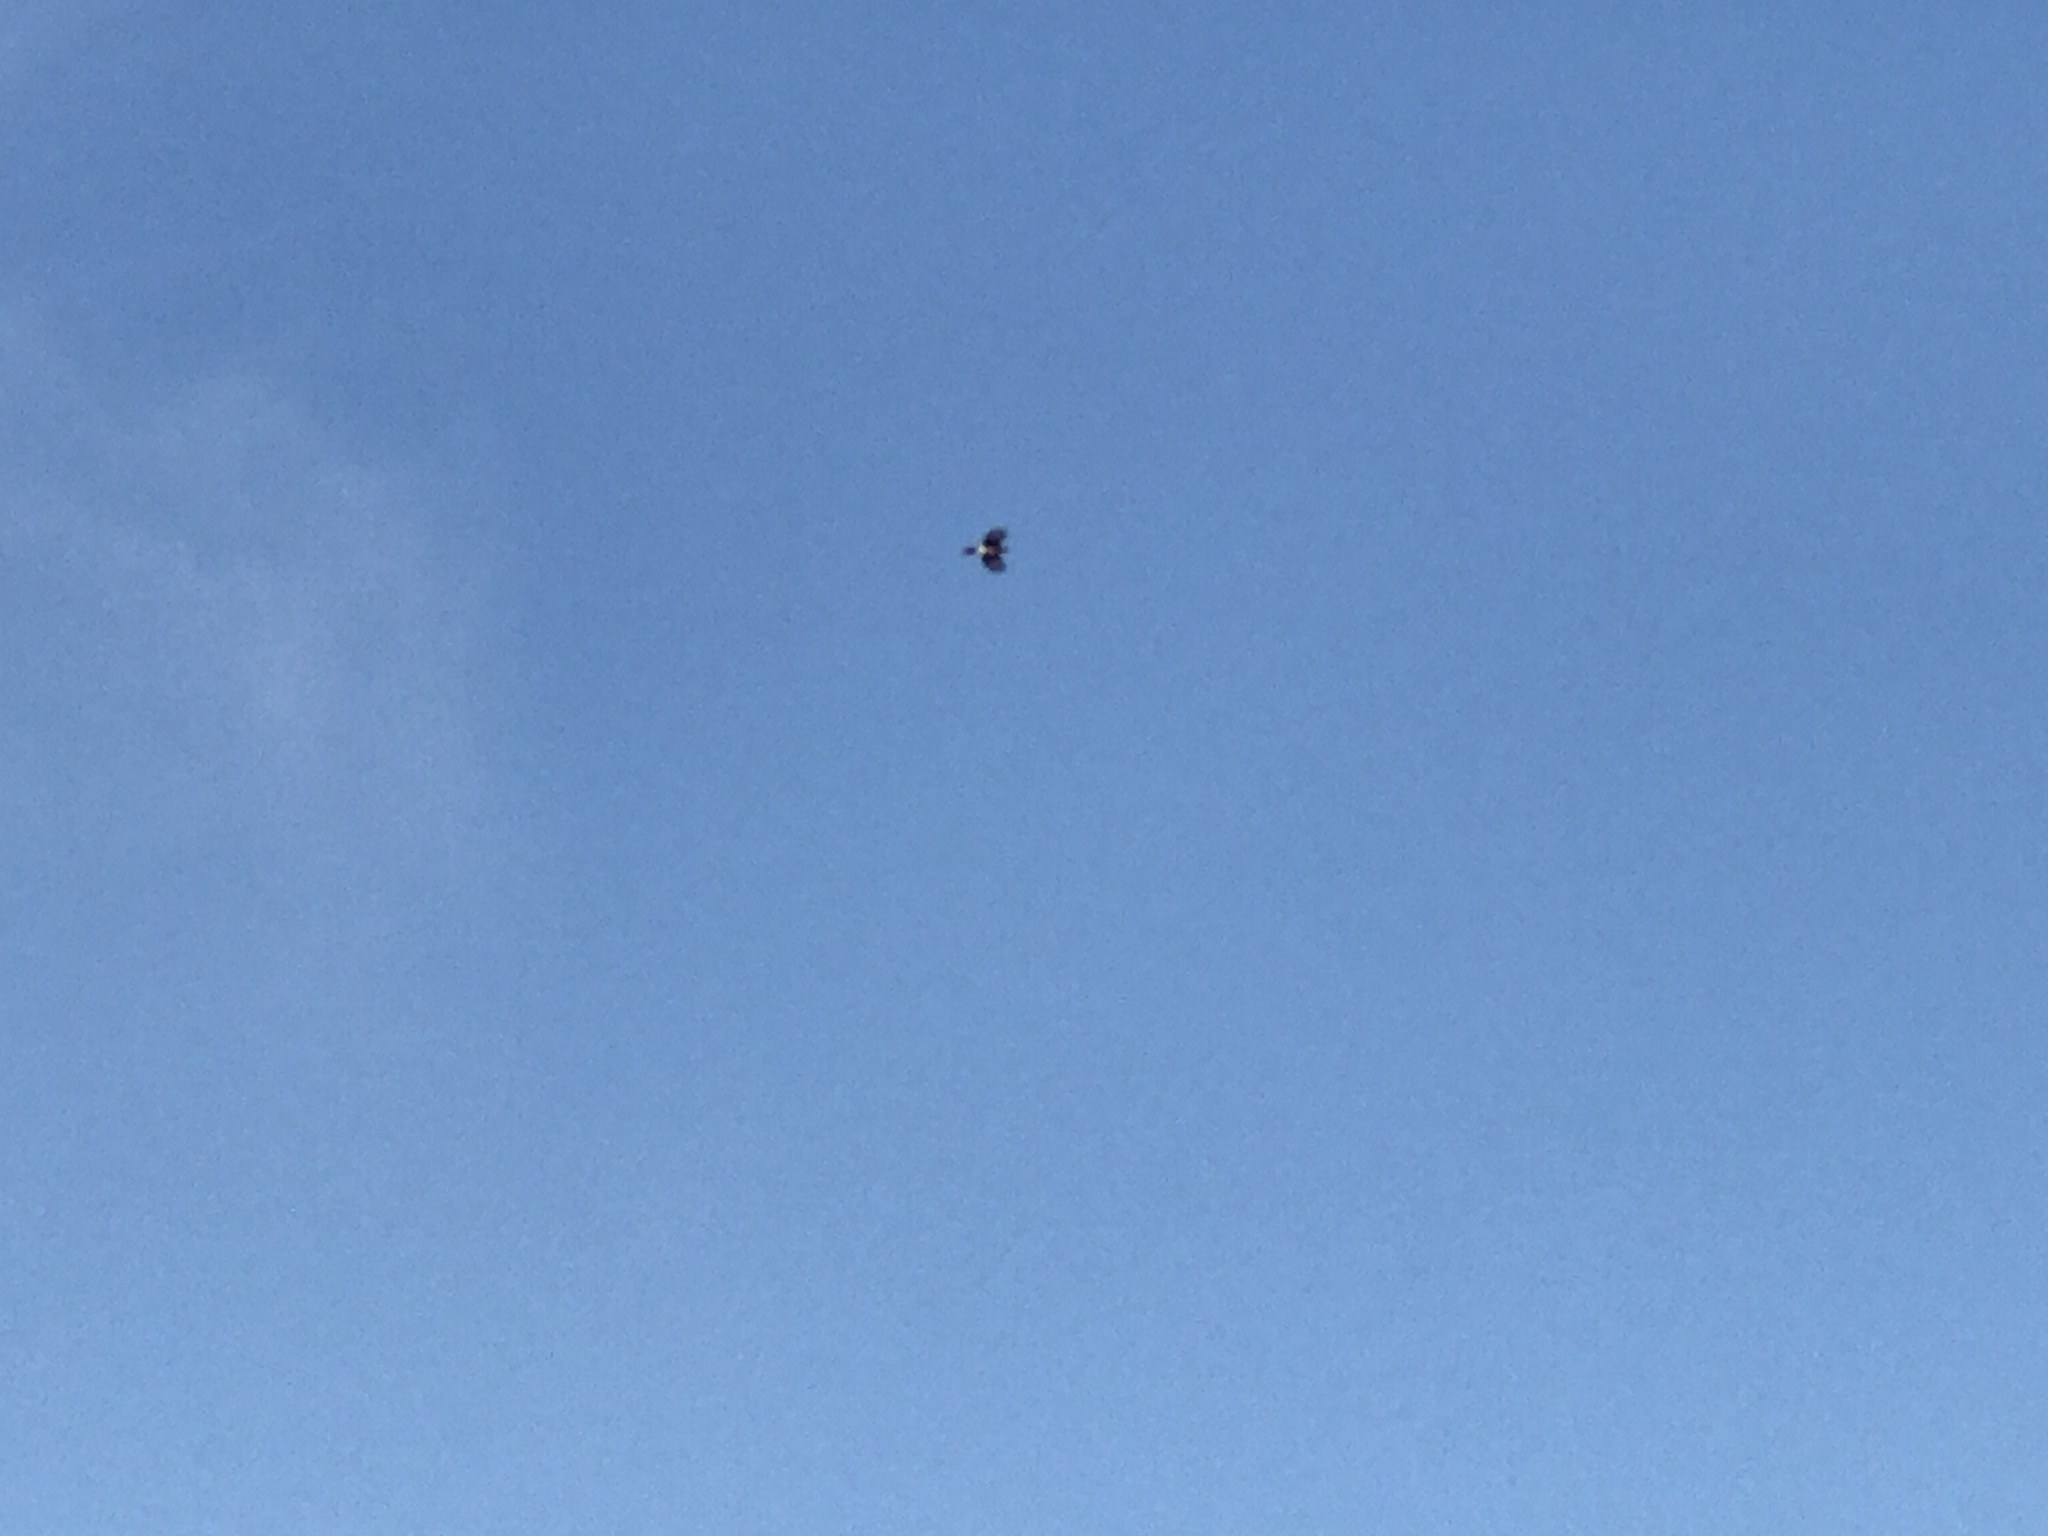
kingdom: Animalia
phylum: Chordata
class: Aves
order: Passeriformes
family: Corvidae
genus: Cyanocitta
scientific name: Cyanocitta cristata
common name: Blue jay
